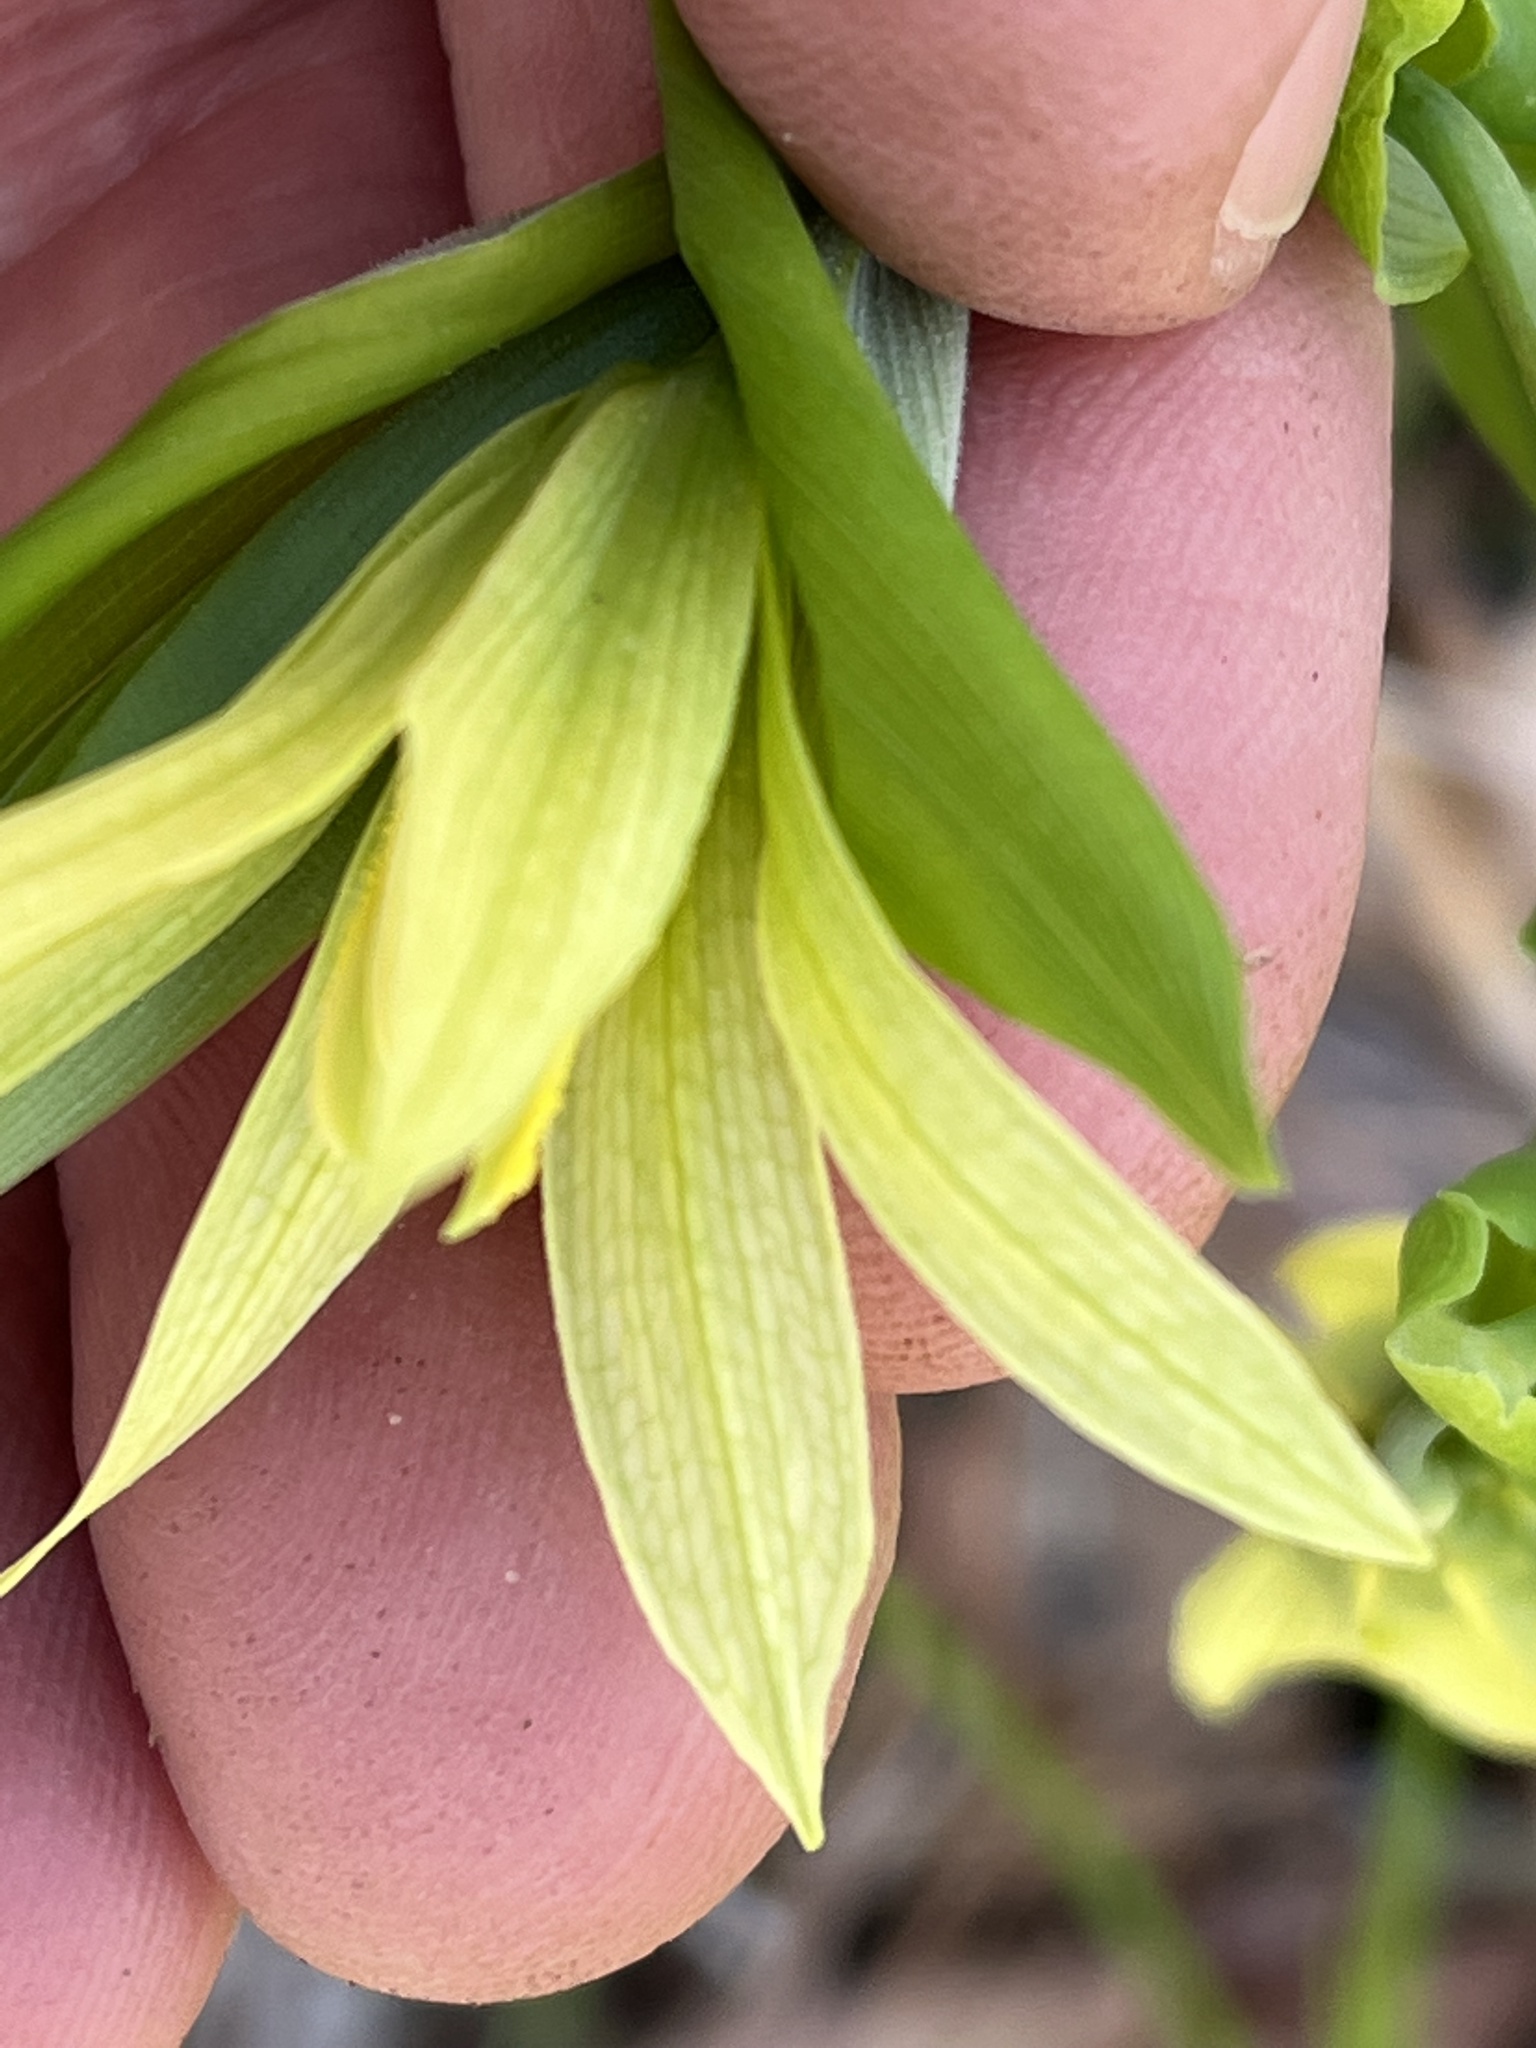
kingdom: Plantae
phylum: Tracheophyta
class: Liliopsida
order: Liliales
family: Colchicaceae
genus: Uvularia
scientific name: Uvularia grandiflora
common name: Bellwort
